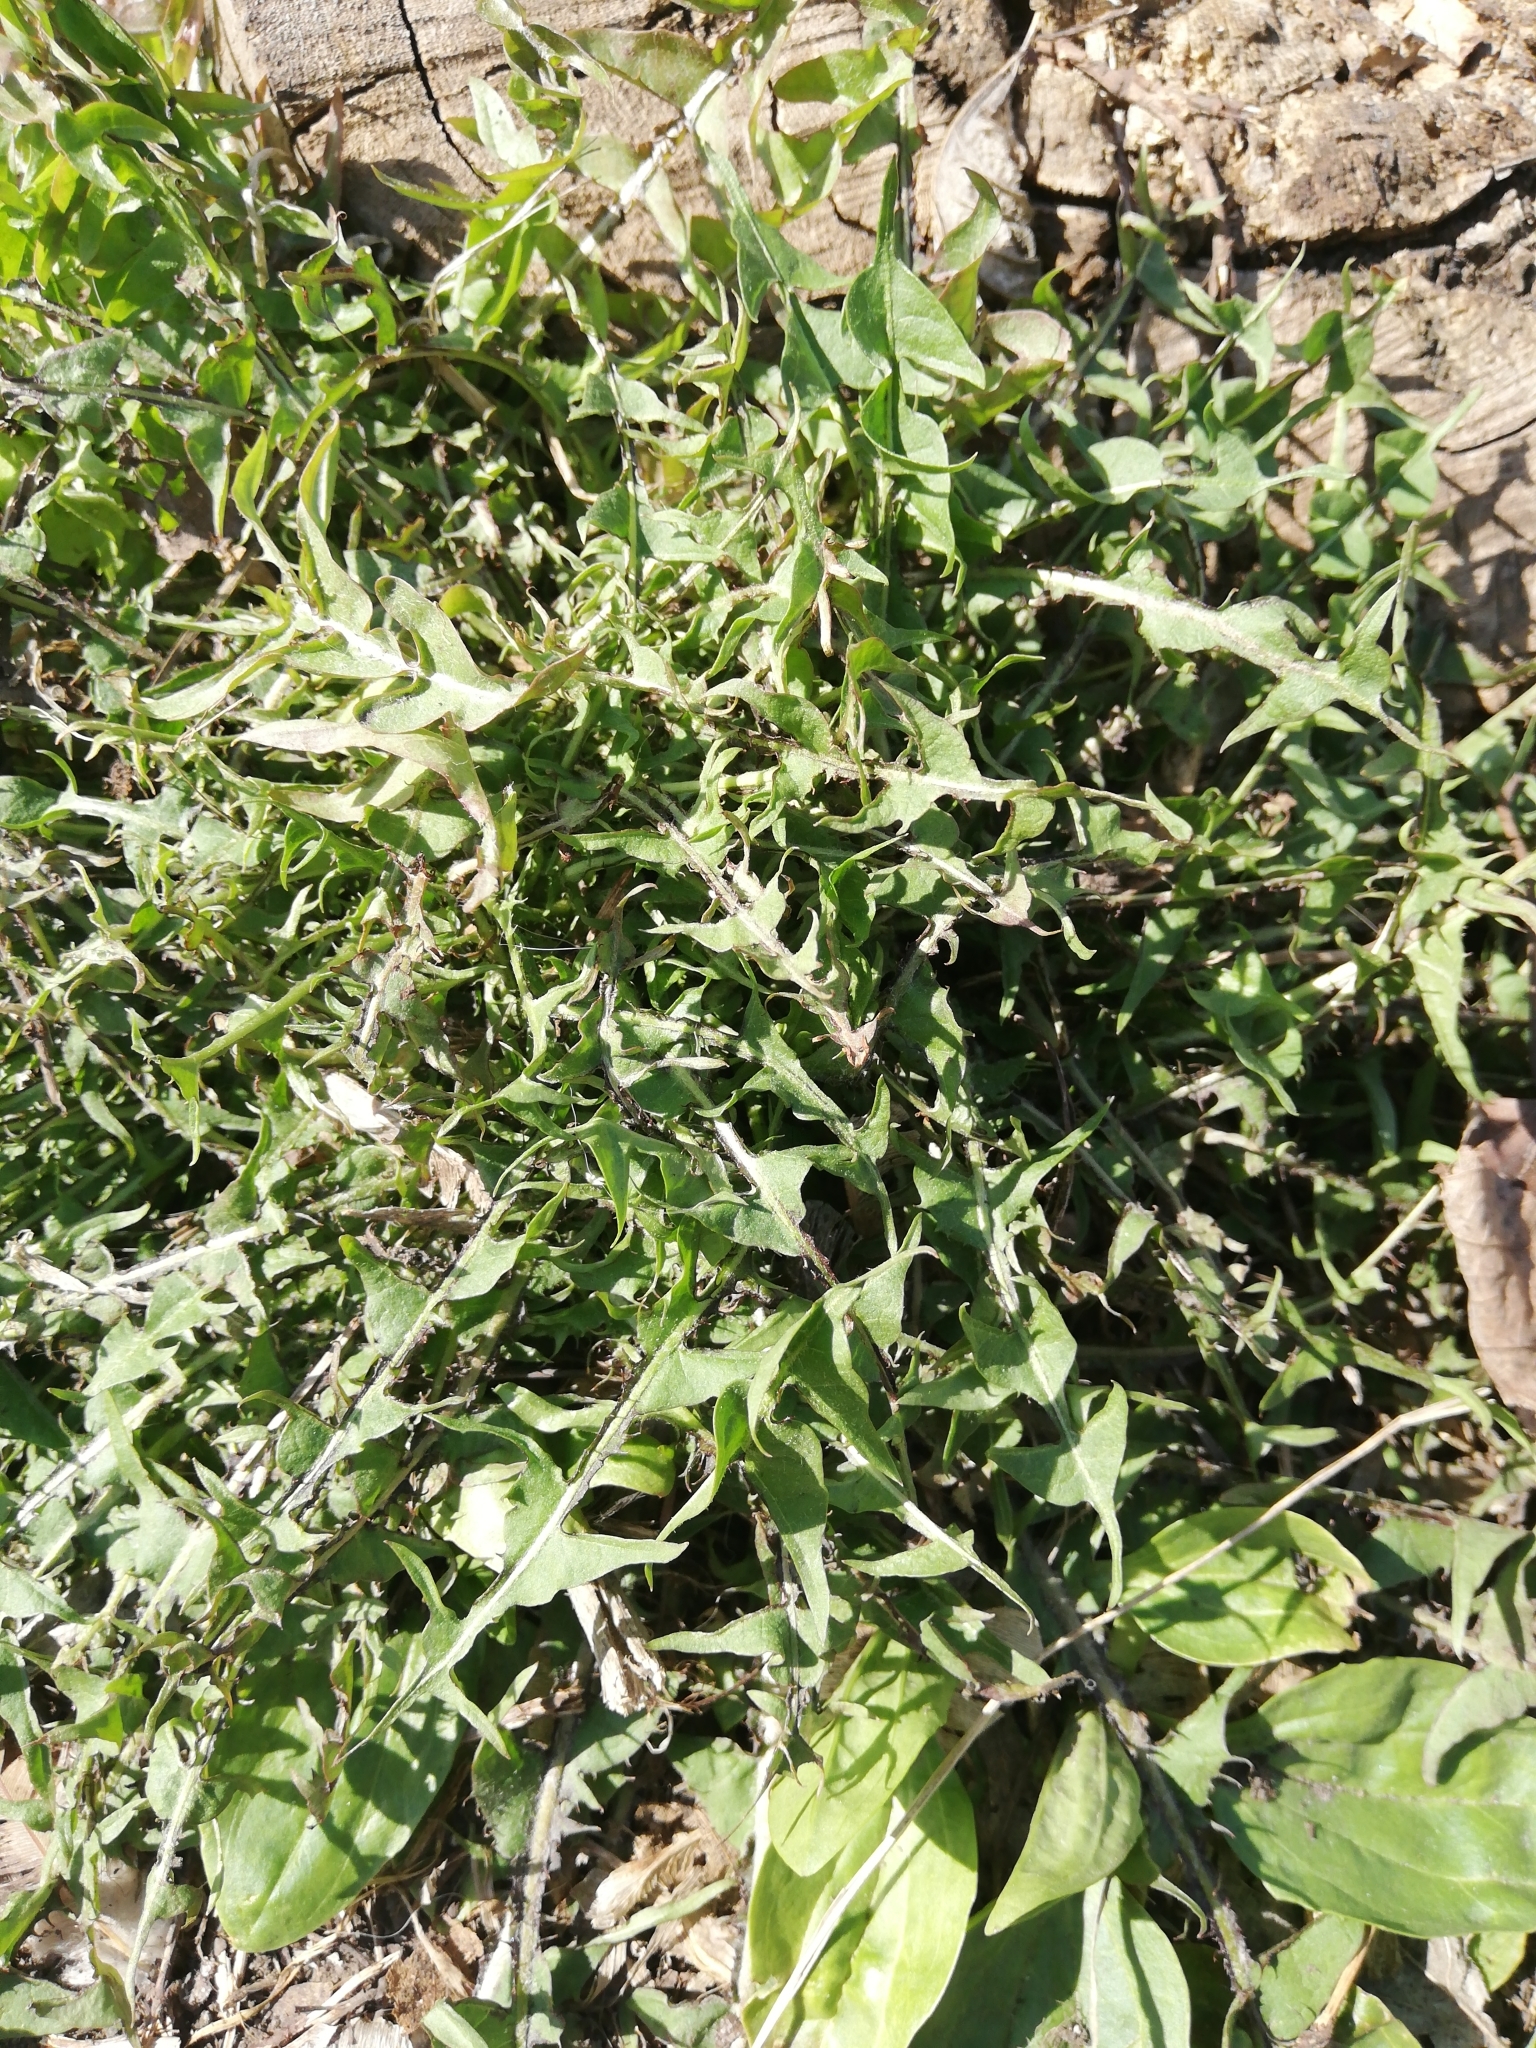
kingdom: Plantae
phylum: Tracheophyta
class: Magnoliopsida
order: Asterales
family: Asteraceae
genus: Taraxacum
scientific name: Taraxacum officinale
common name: Common dandelion
